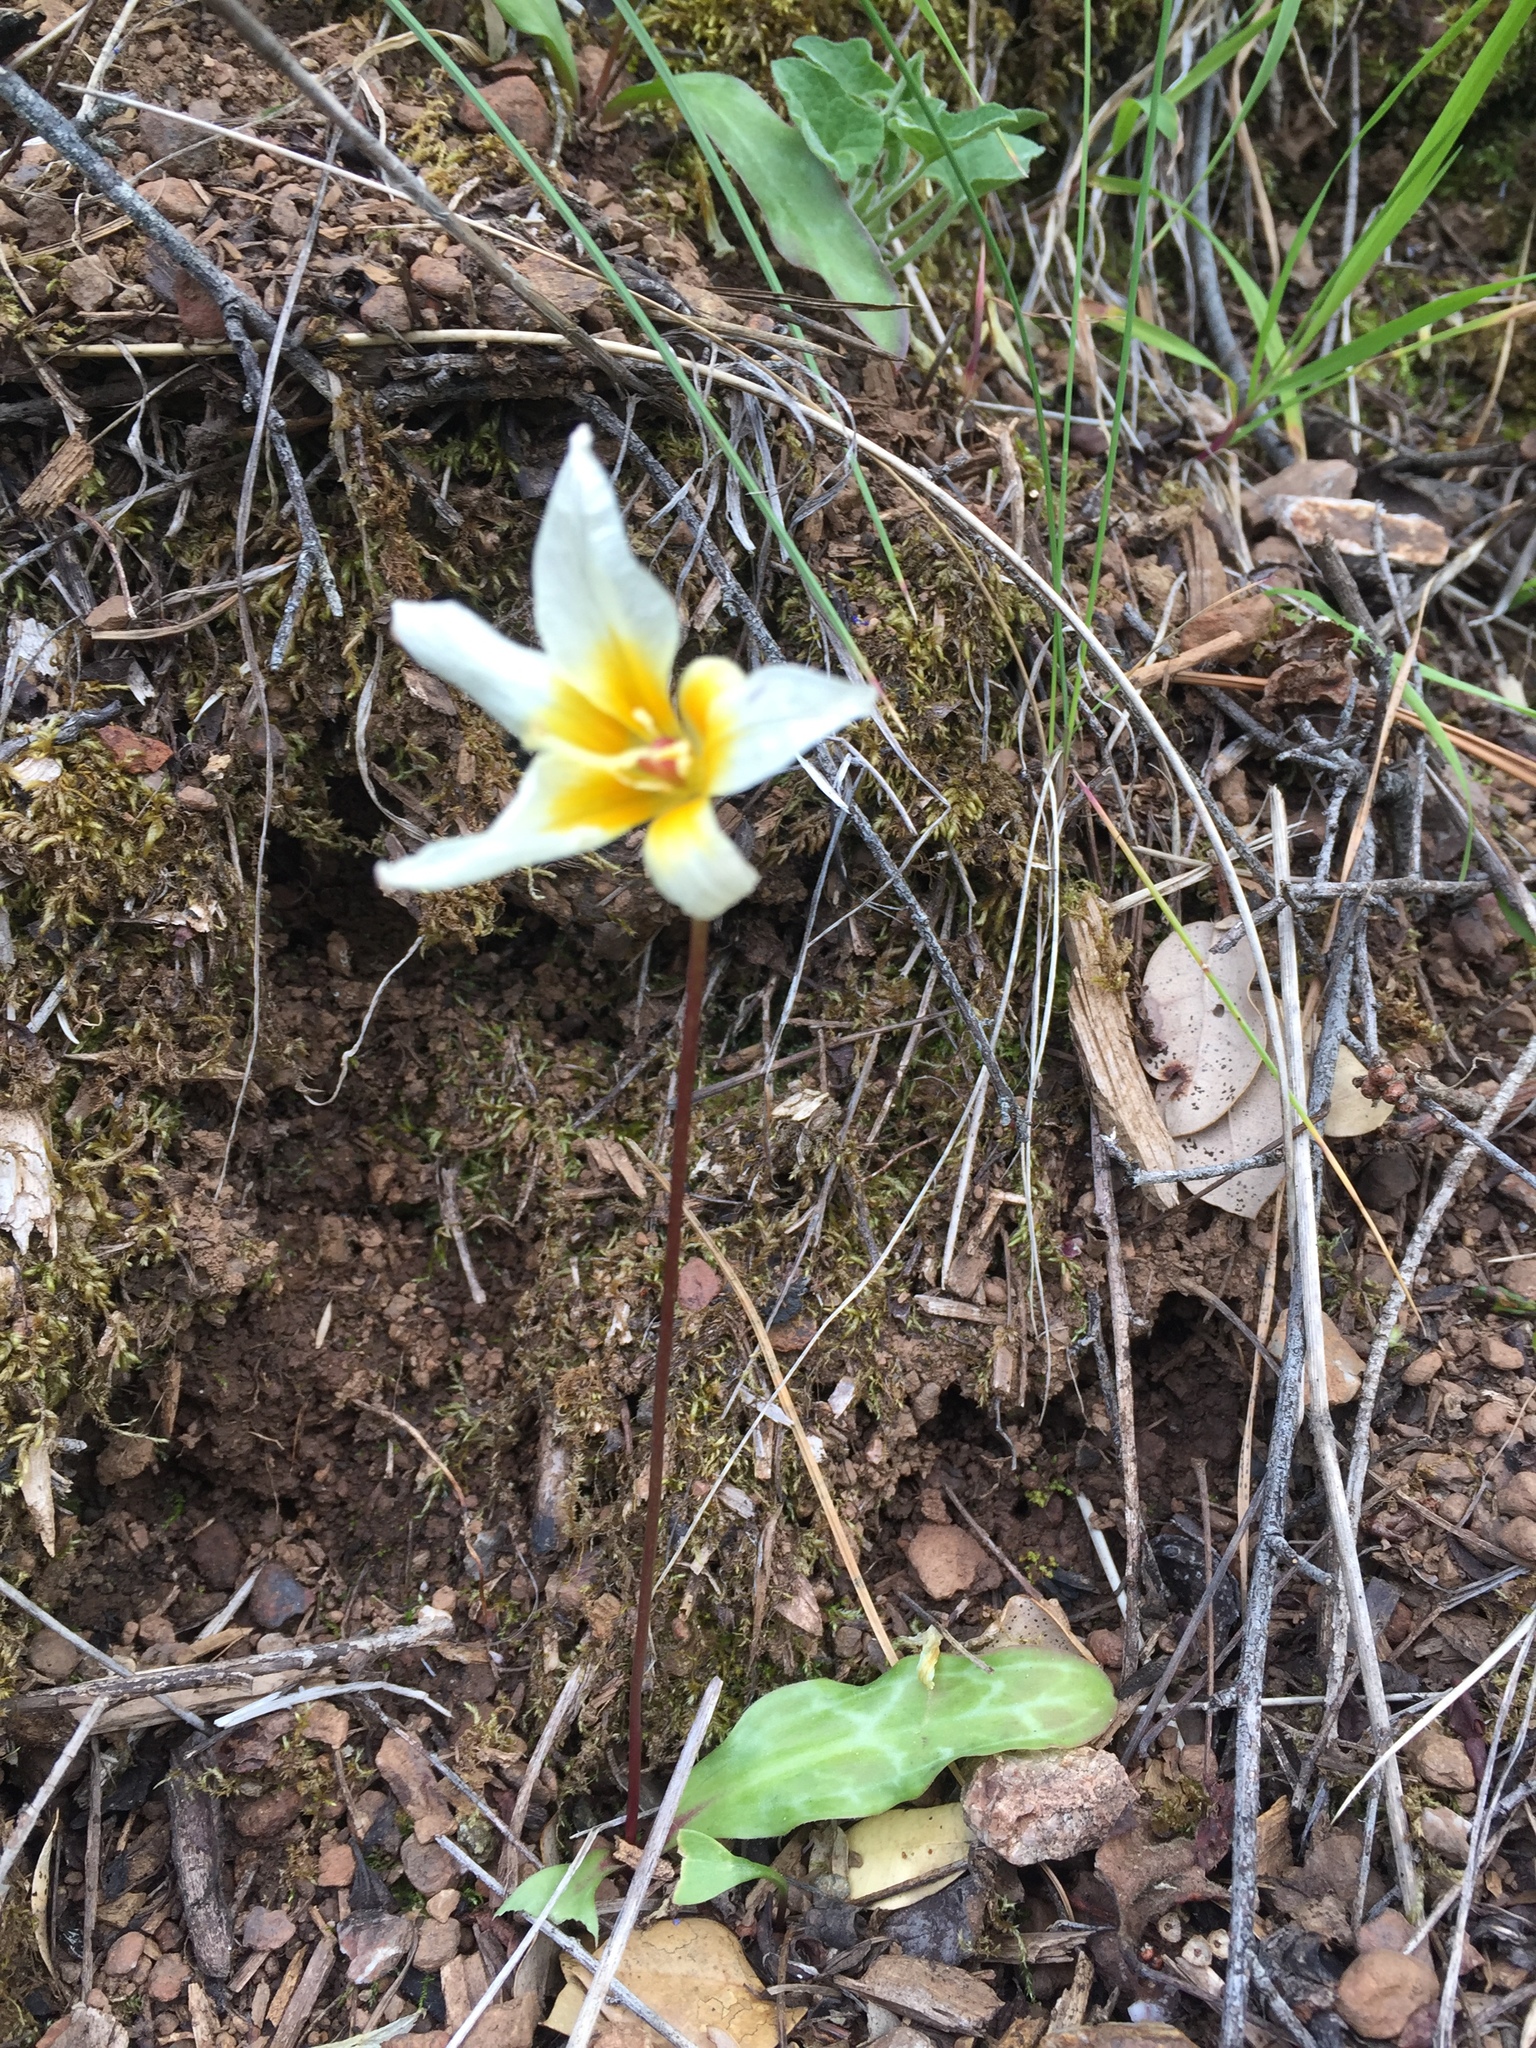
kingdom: Plantae
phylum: Tracheophyta
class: Liliopsida
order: Liliales
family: Liliaceae
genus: Erythronium
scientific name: Erythronium helenae
